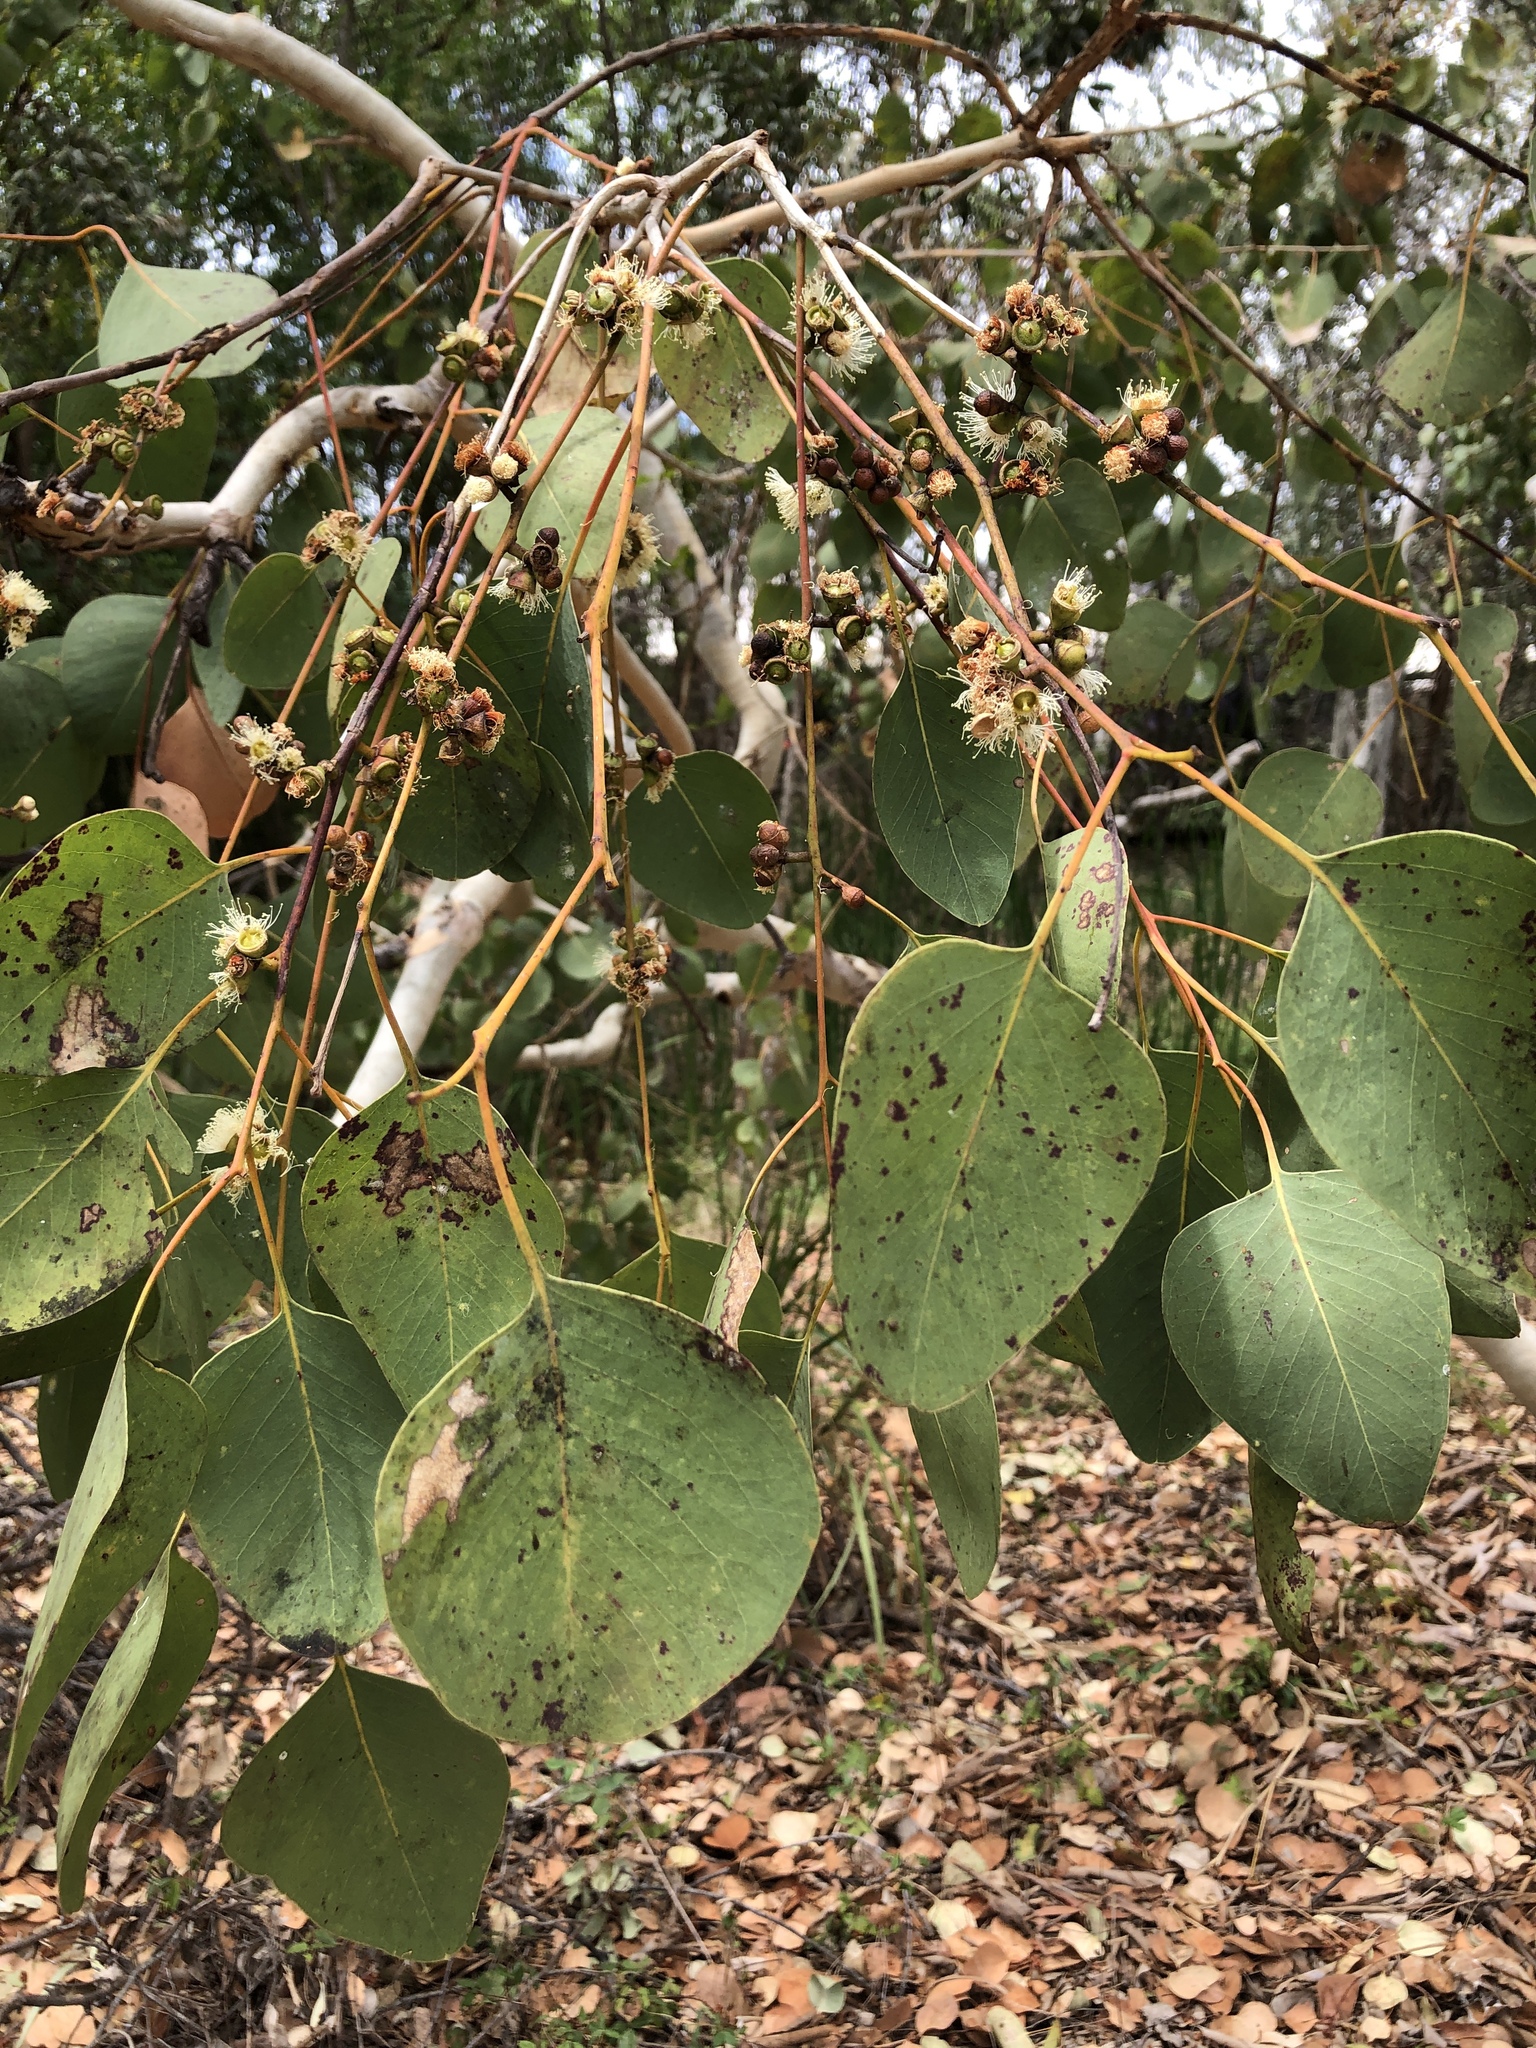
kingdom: Plantae
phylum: Tracheophyta
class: Magnoliopsida
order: Myrtales
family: Myrtaceae
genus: Eucalyptus
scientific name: Eucalyptus platyphylla
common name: Poplar-gum
